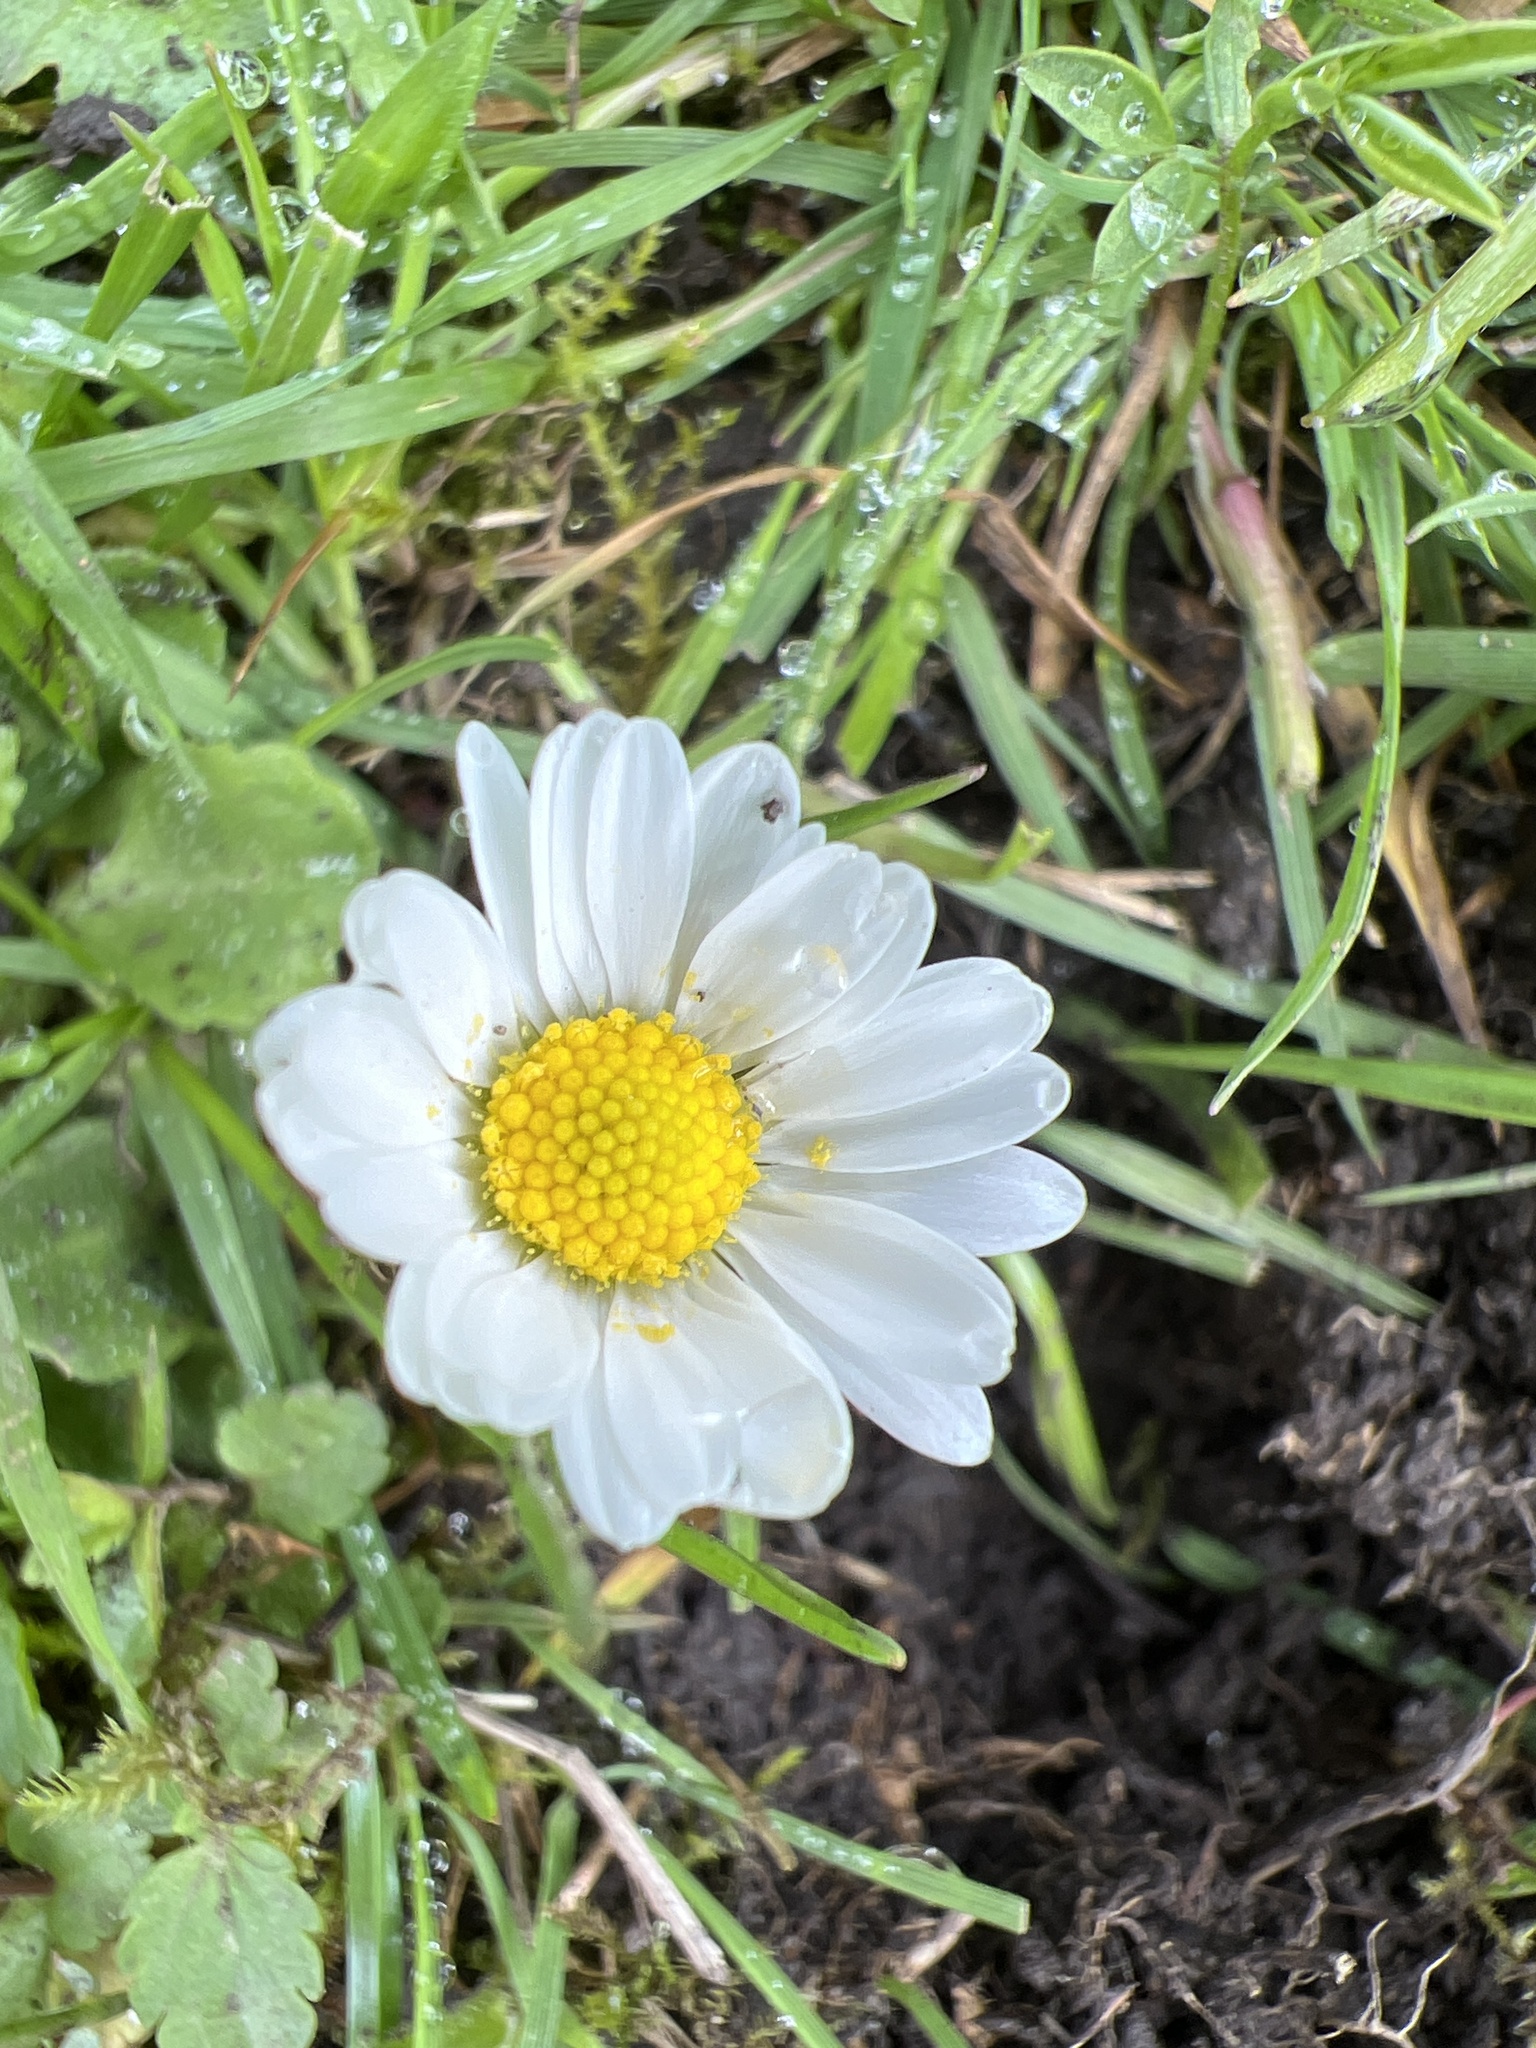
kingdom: Plantae
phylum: Tracheophyta
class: Magnoliopsida
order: Asterales
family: Asteraceae
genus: Bellis
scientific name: Bellis perennis
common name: Lawndaisy
